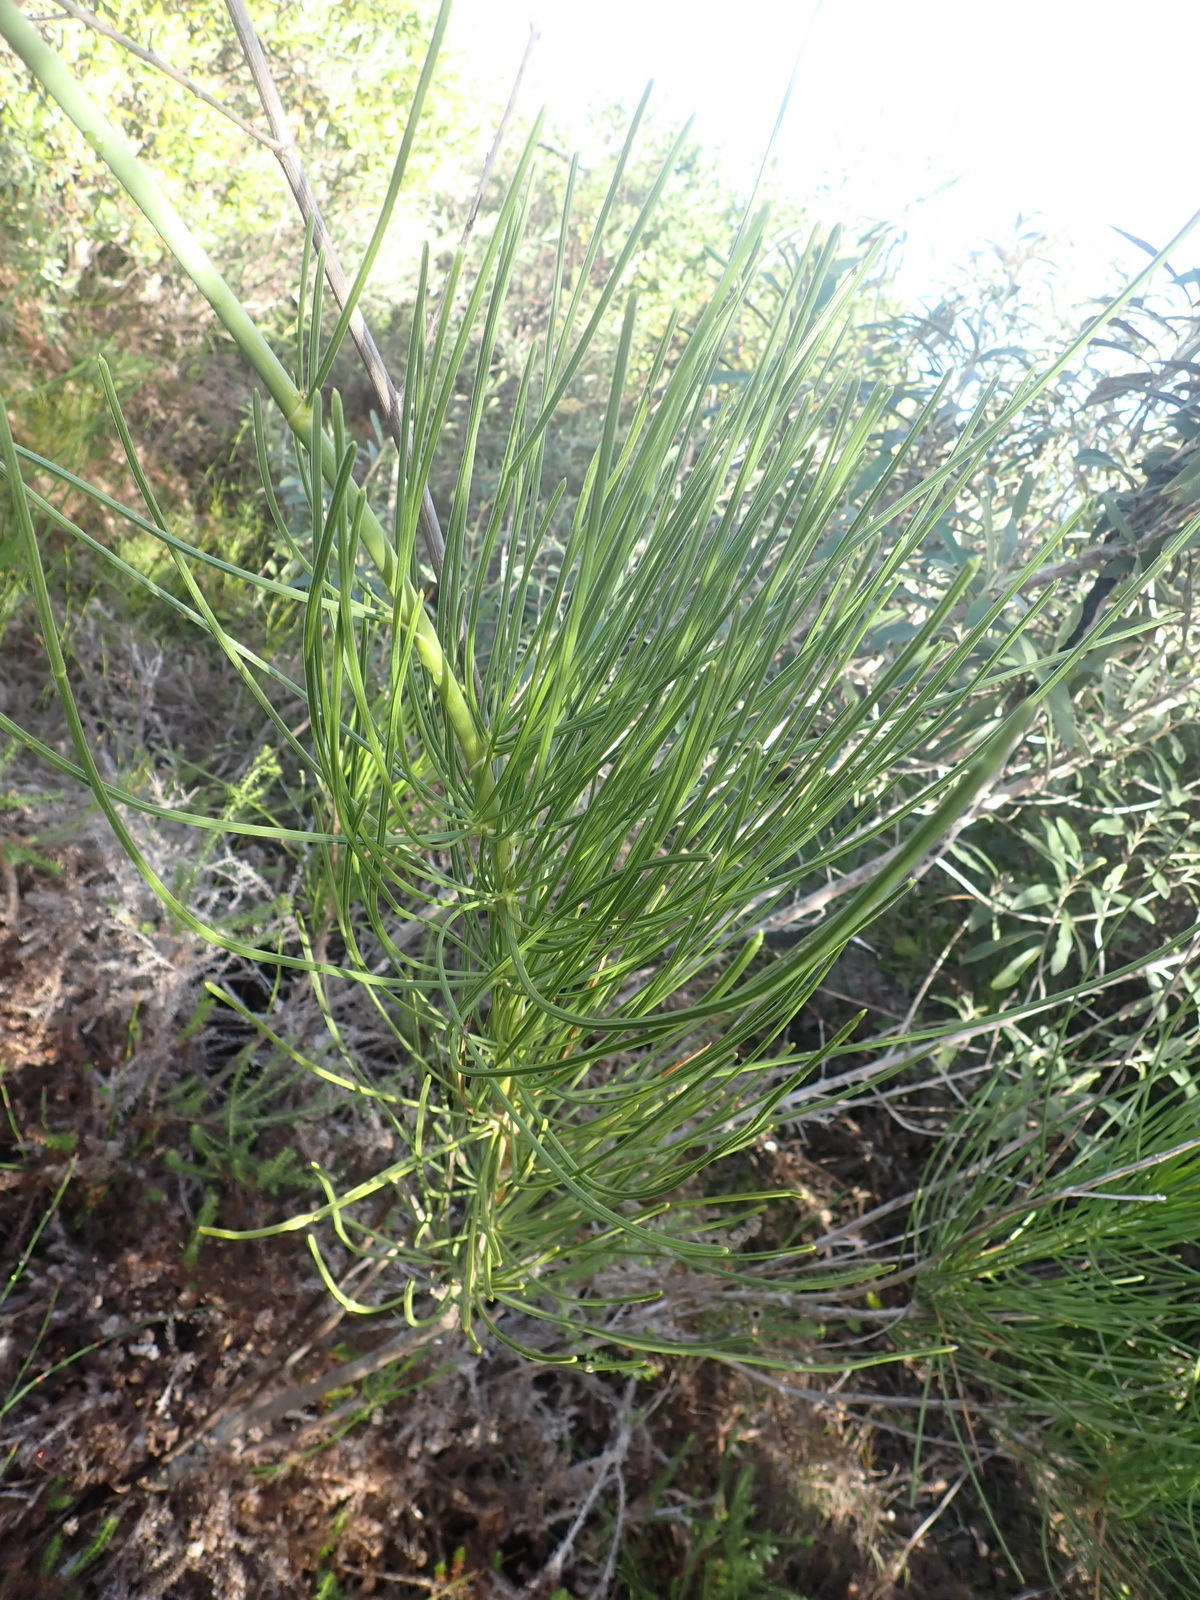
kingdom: Plantae
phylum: Tracheophyta
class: Magnoliopsida
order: Apiales
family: Apiaceae
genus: Anginon
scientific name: Anginon difforme
